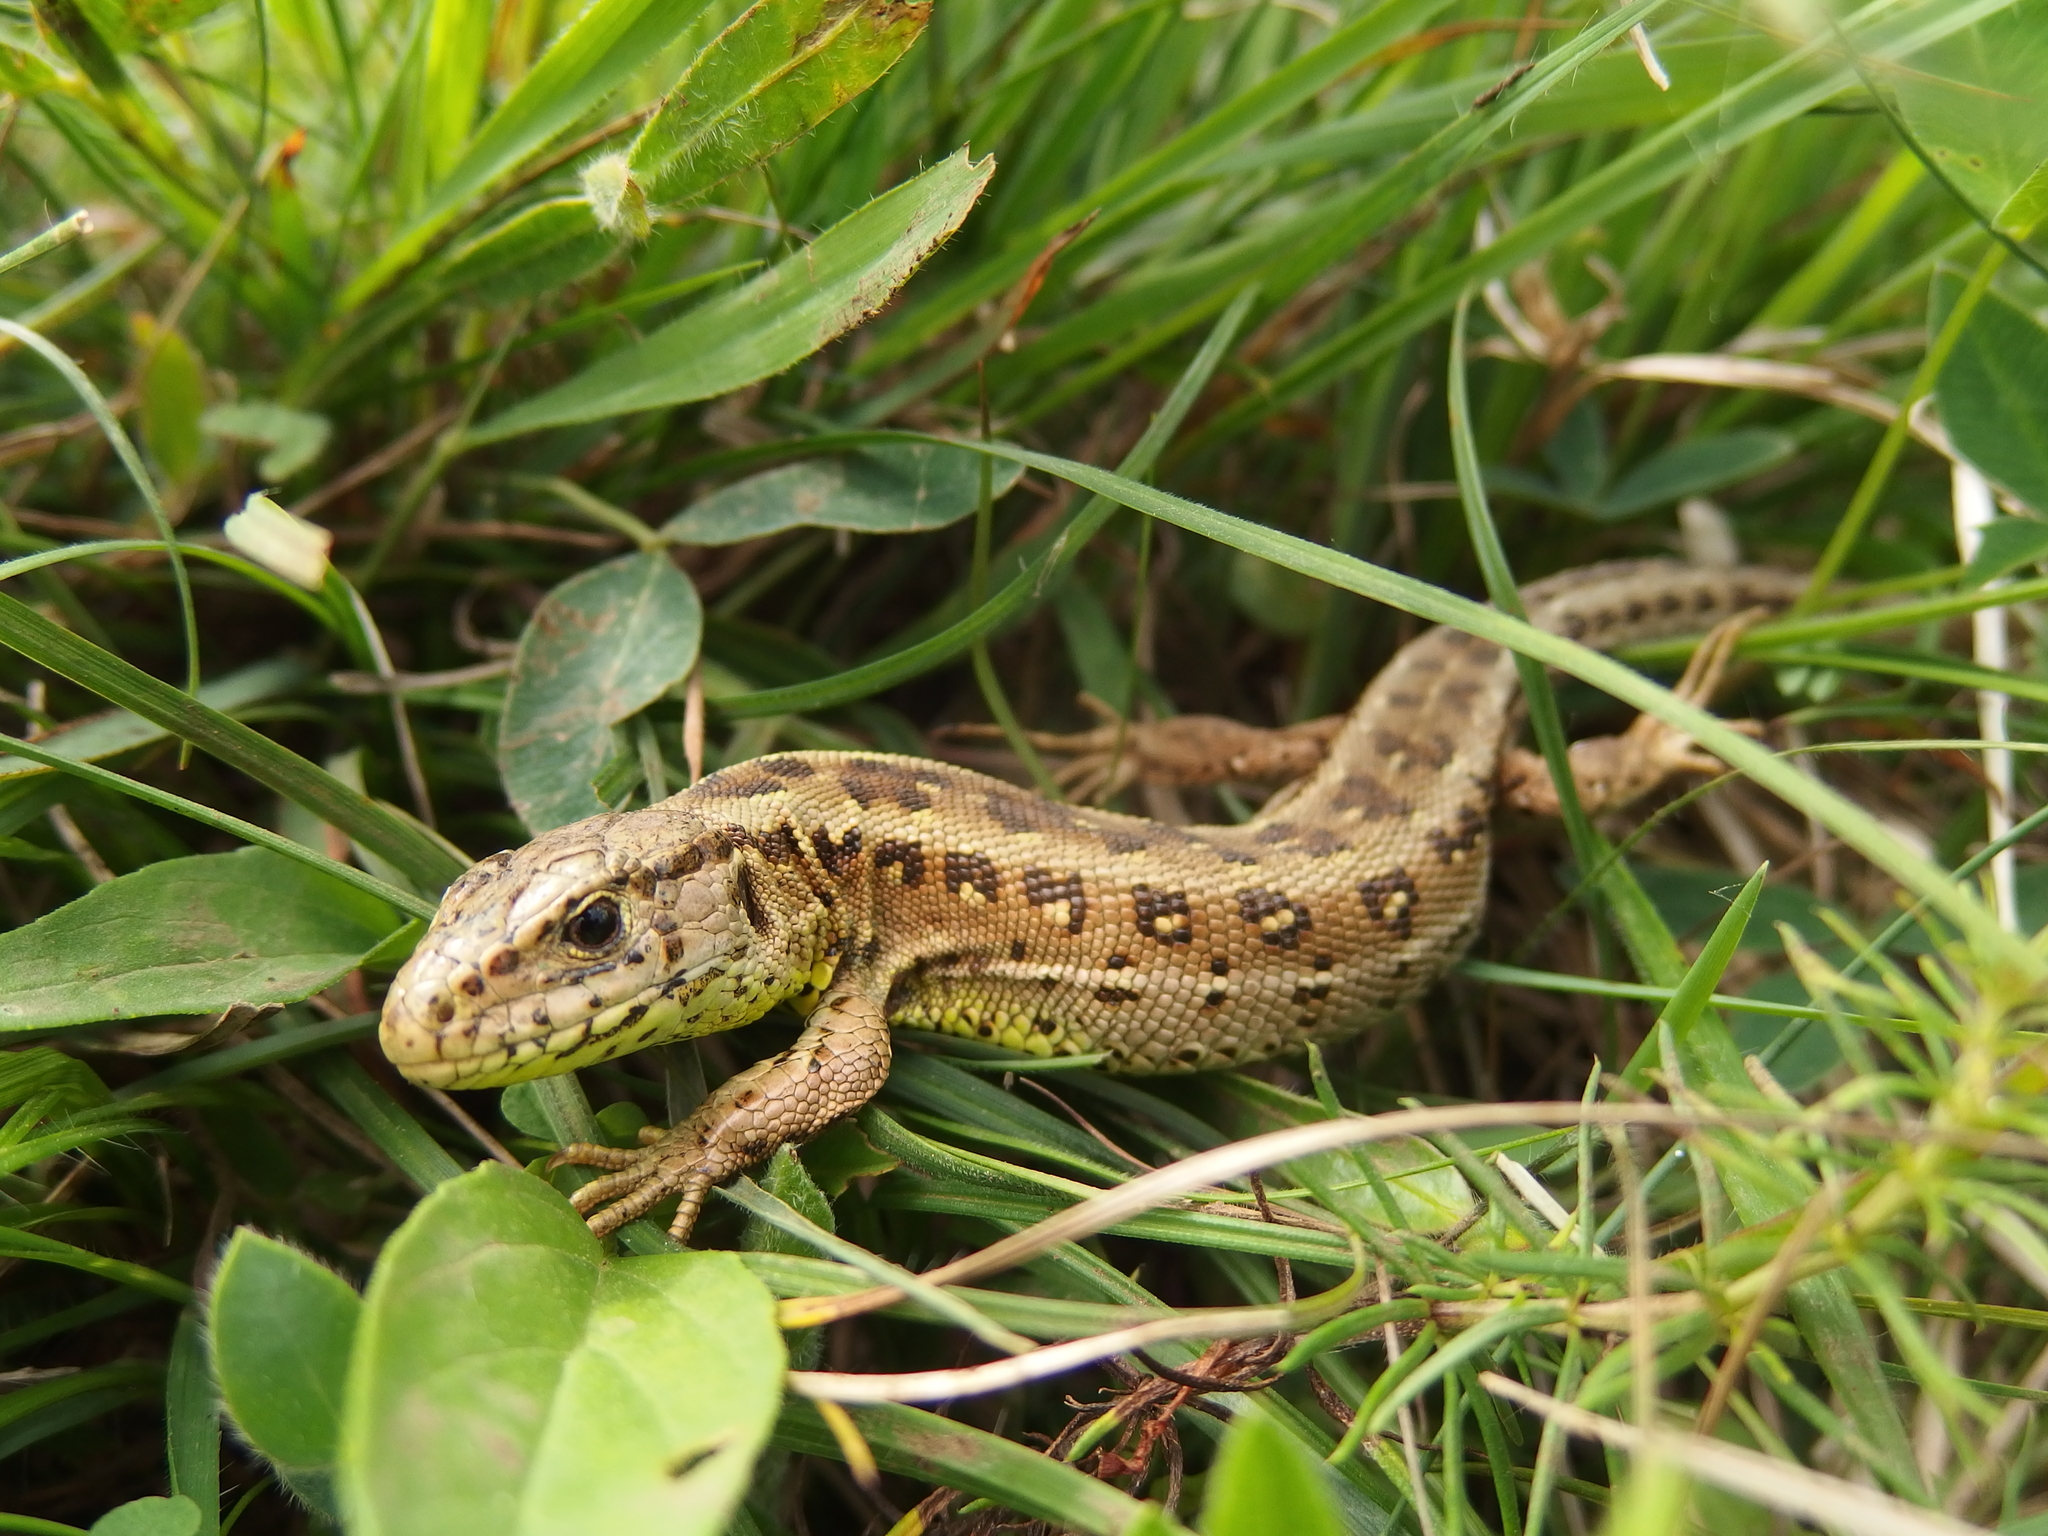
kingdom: Animalia
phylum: Chordata
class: Squamata
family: Lacertidae
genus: Lacerta
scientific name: Lacerta agilis
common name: Sand lizard
